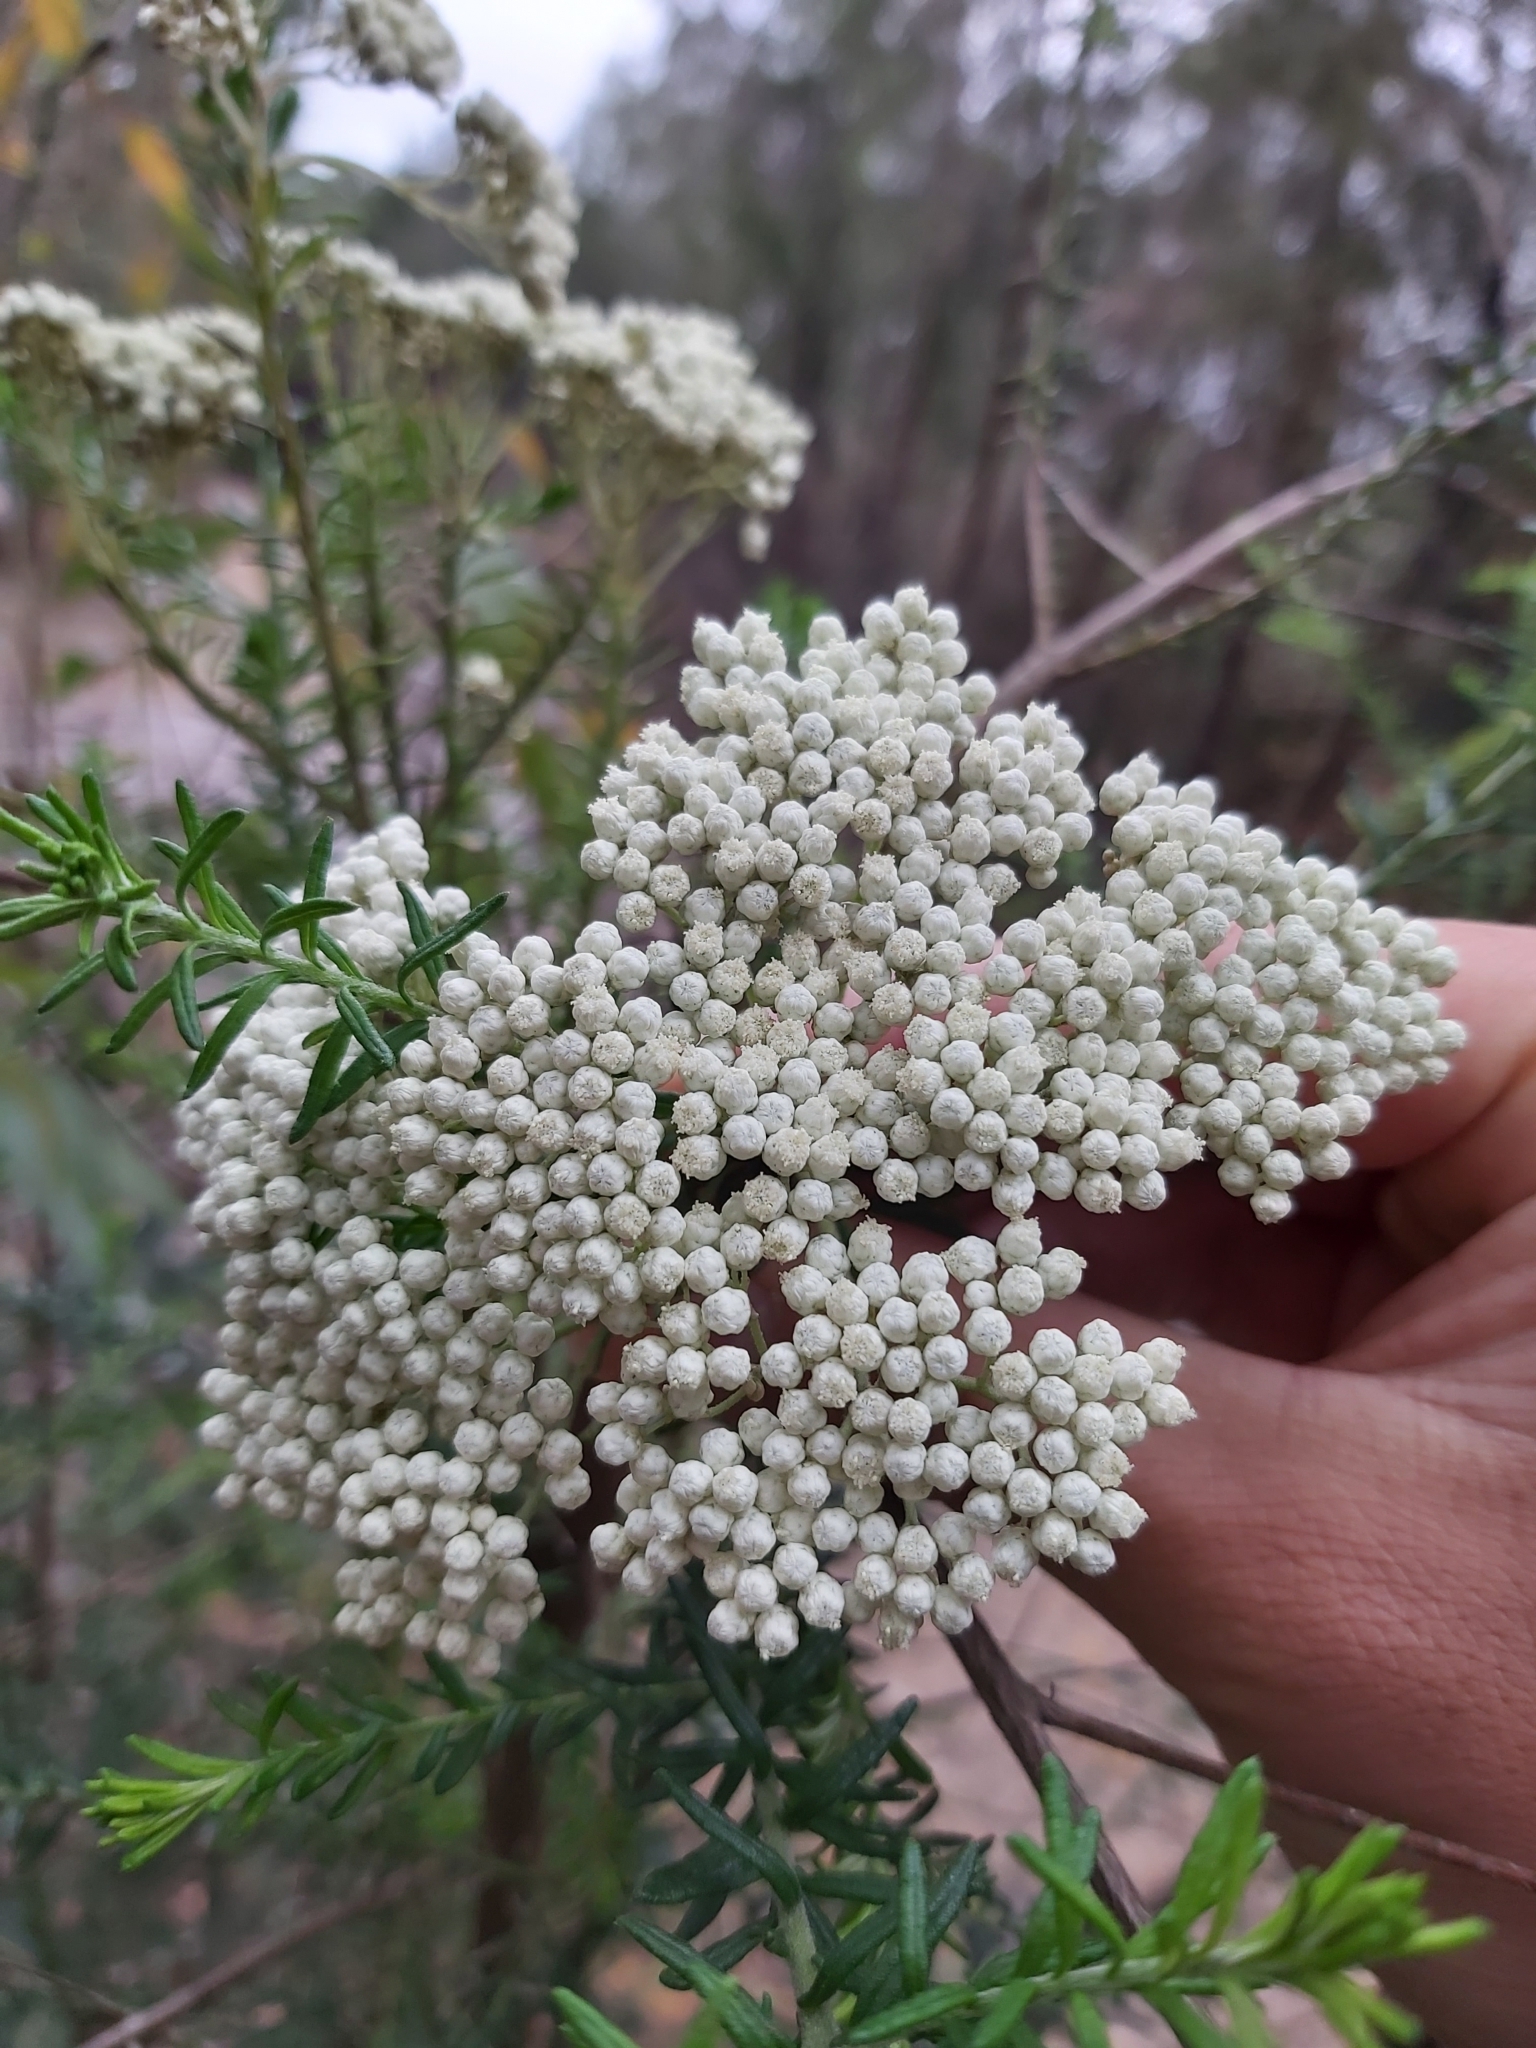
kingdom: Plantae
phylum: Tracheophyta
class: Magnoliopsida
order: Asterales
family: Asteraceae
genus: Ozothamnus
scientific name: Ozothamnus diosmifolius
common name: White-dogwood
